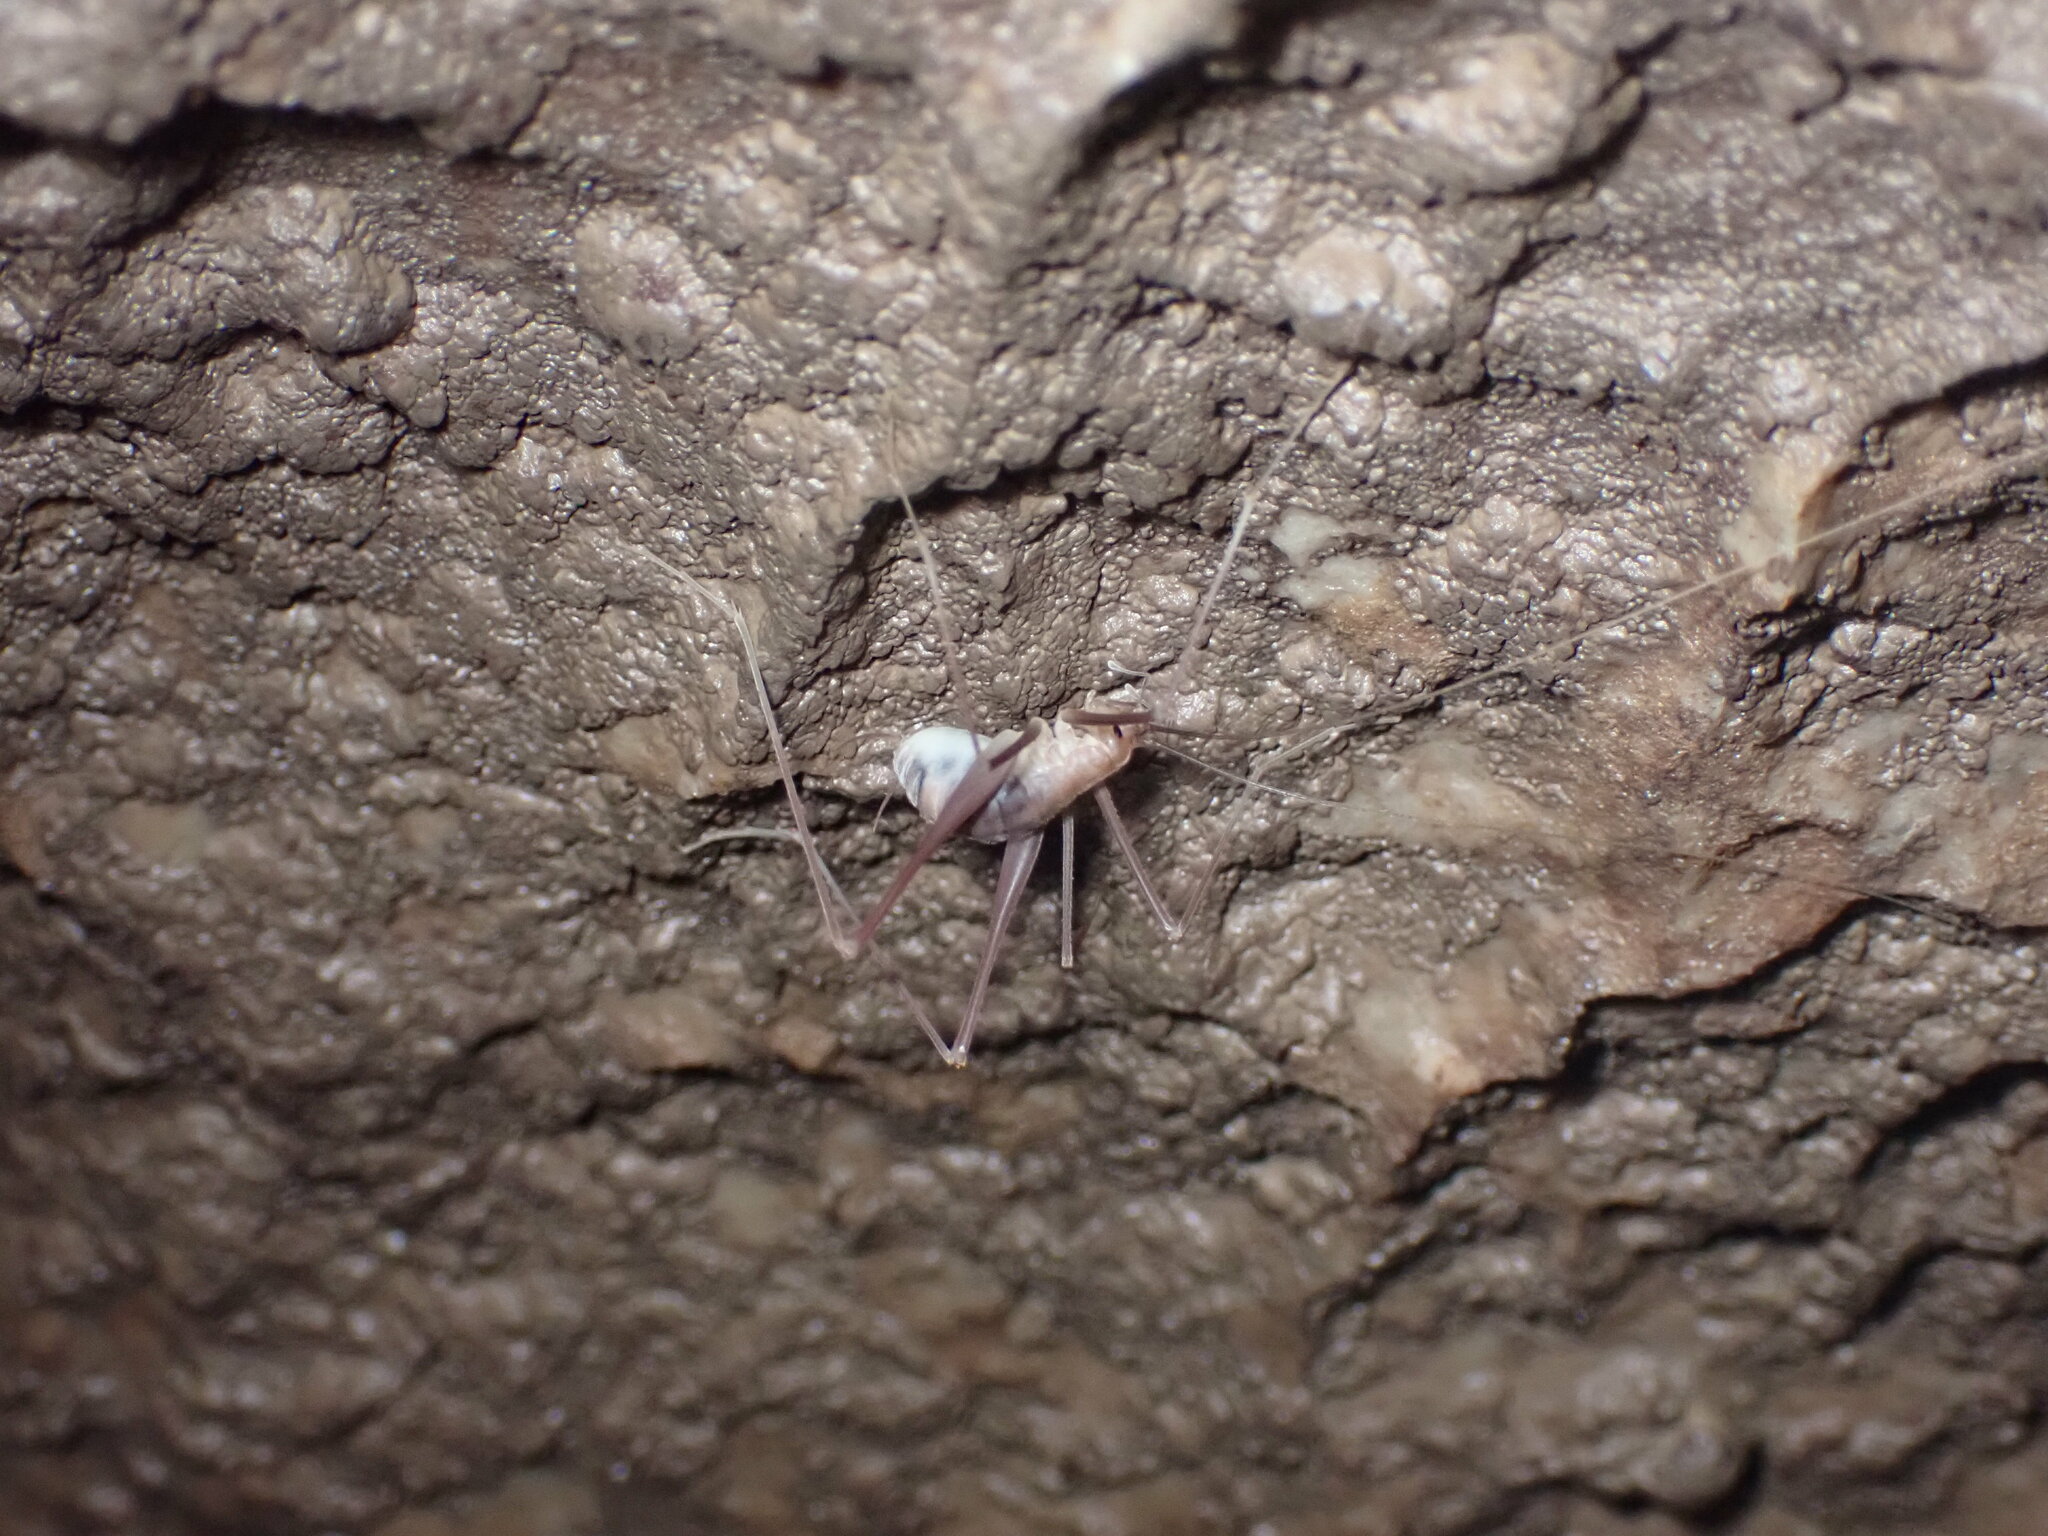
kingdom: Animalia
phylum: Arthropoda
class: Insecta
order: Orthoptera
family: Rhaphidophoridae
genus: Hadenoecus
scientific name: Hadenoecus jonesi
